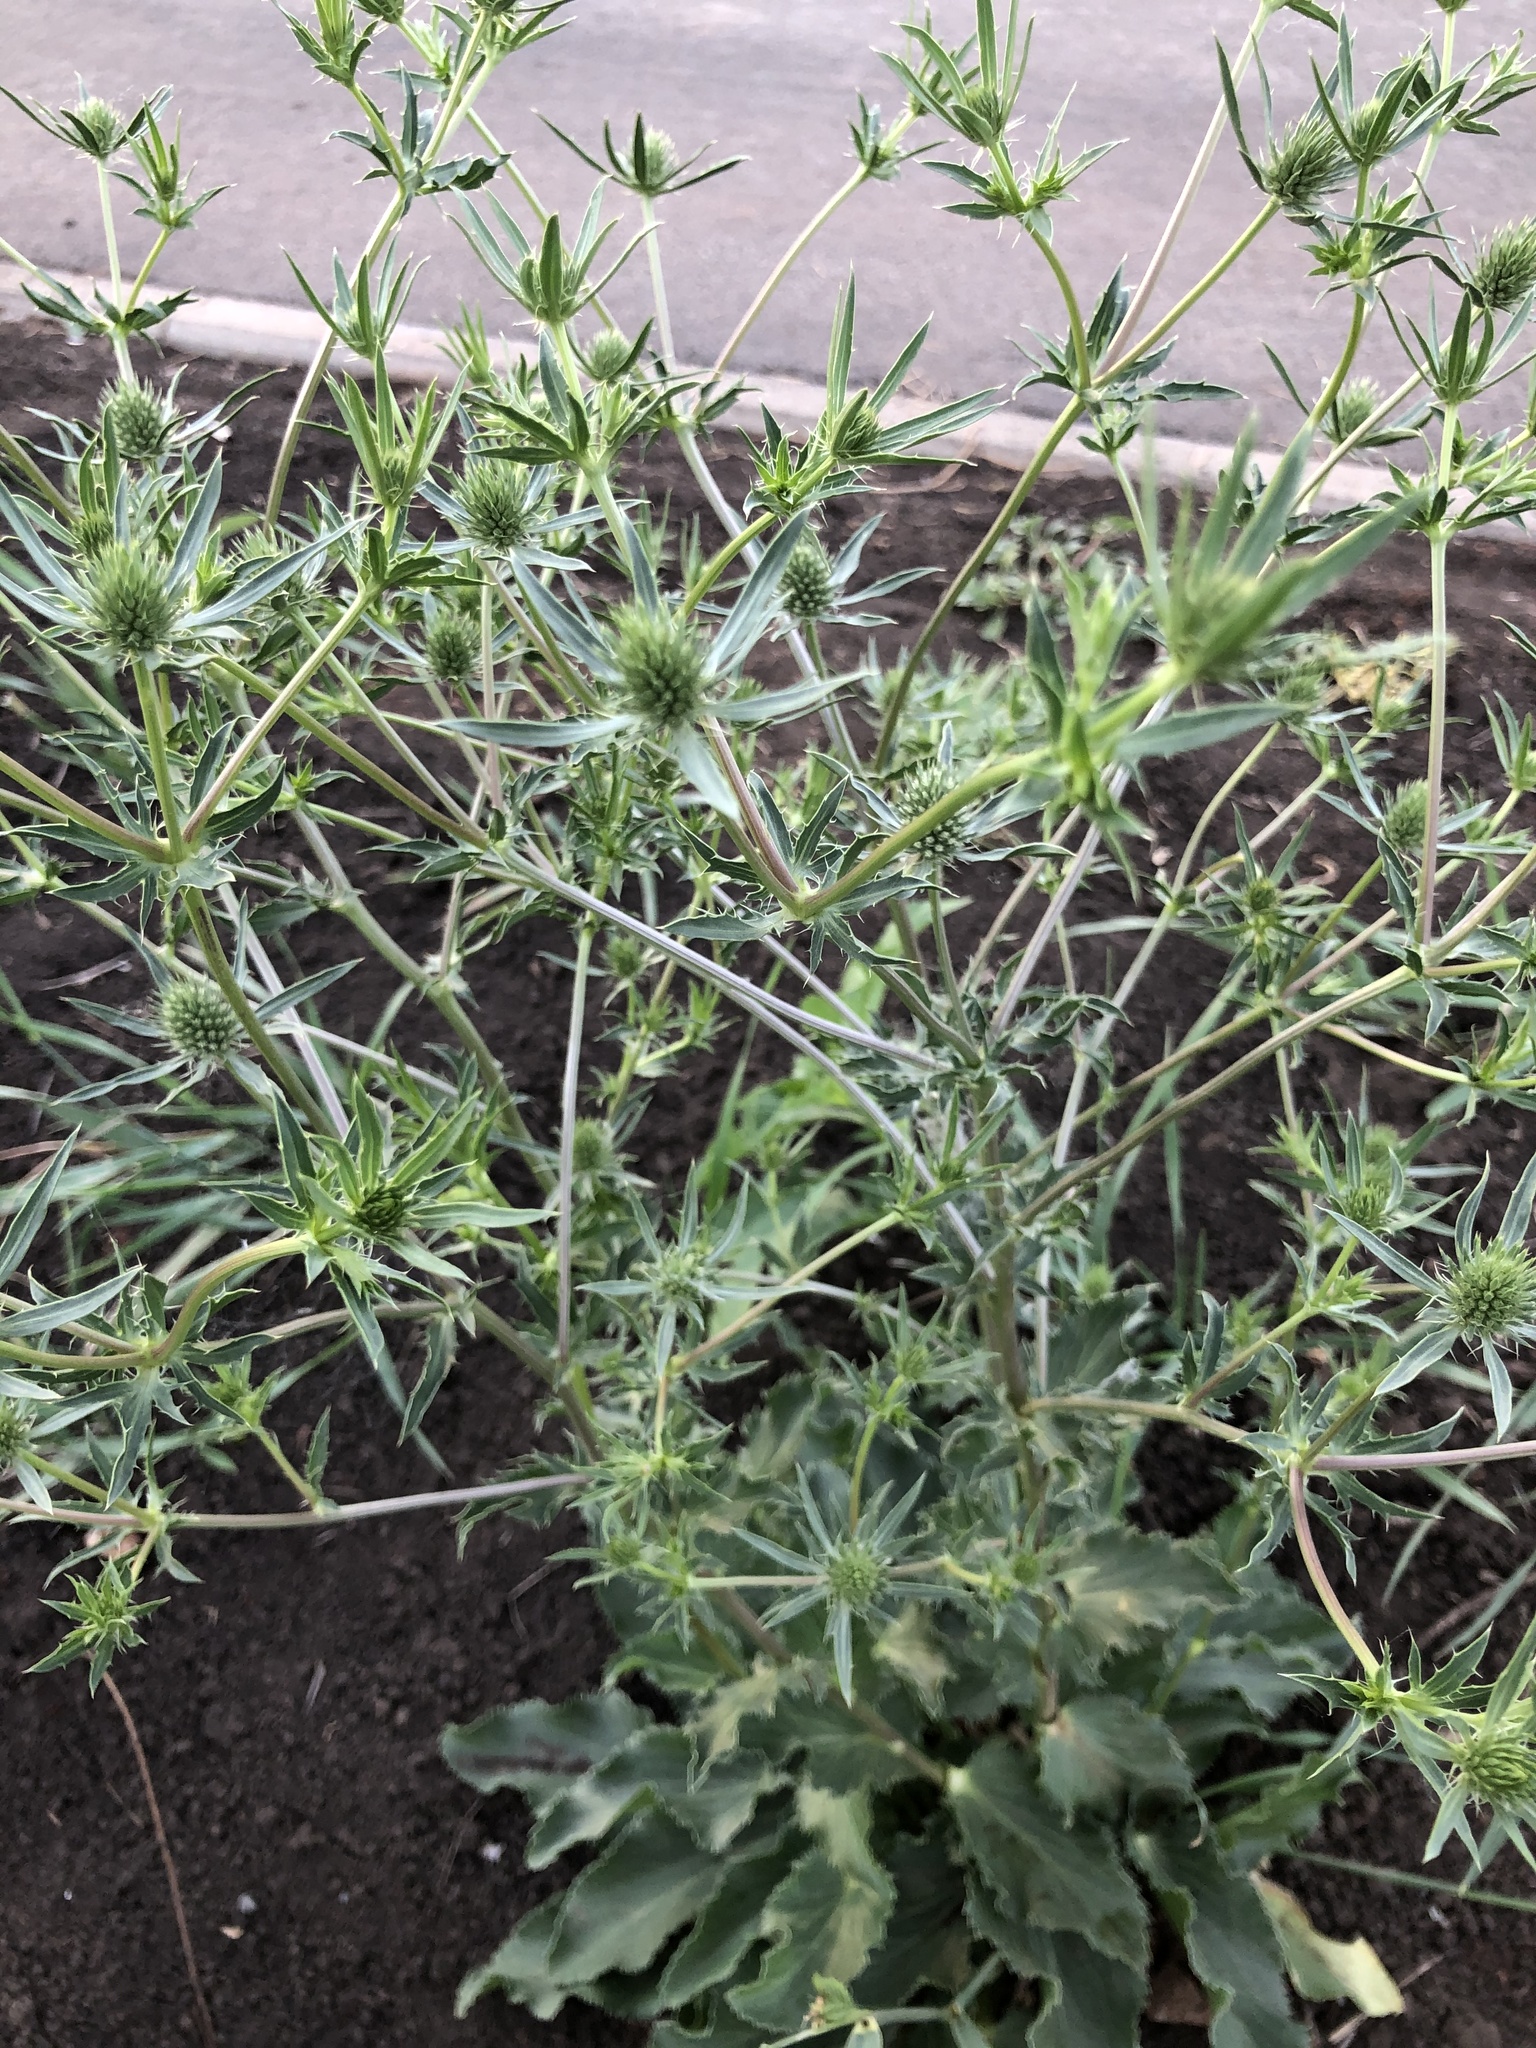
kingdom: Plantae
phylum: Tracheophyta
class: Magnoliopsida
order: Apiales
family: Apiaceae
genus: Eryngium
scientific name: Eryngium planum
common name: Blue eryngo
